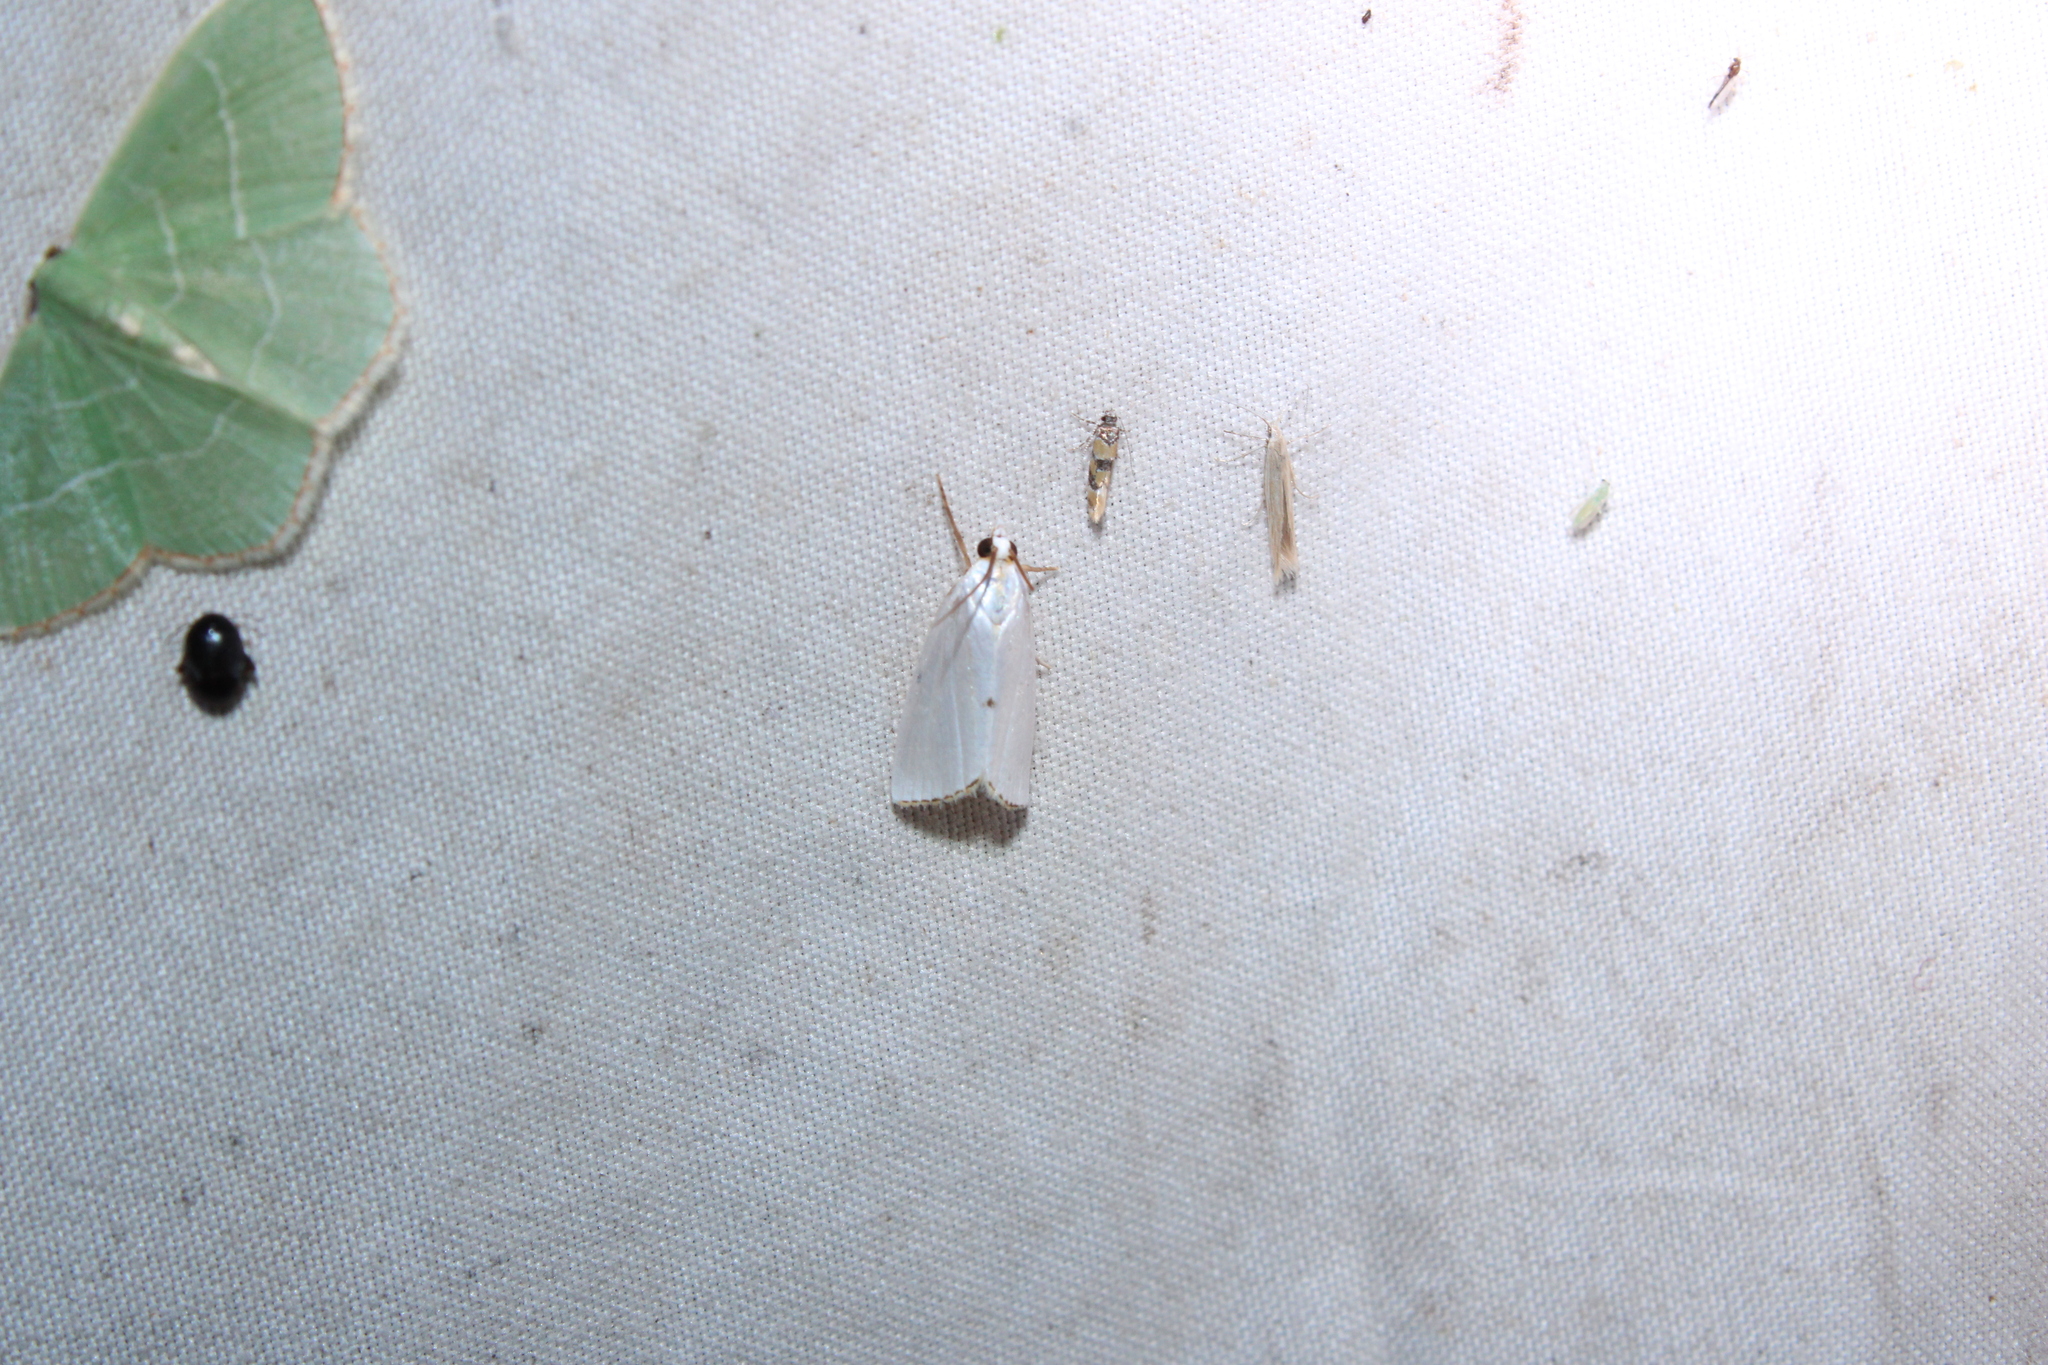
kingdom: Animalia
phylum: Arthropoda
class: Insecta
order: Lepidoptera
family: Crambidae
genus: Argyria
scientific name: Argyria nivalis
